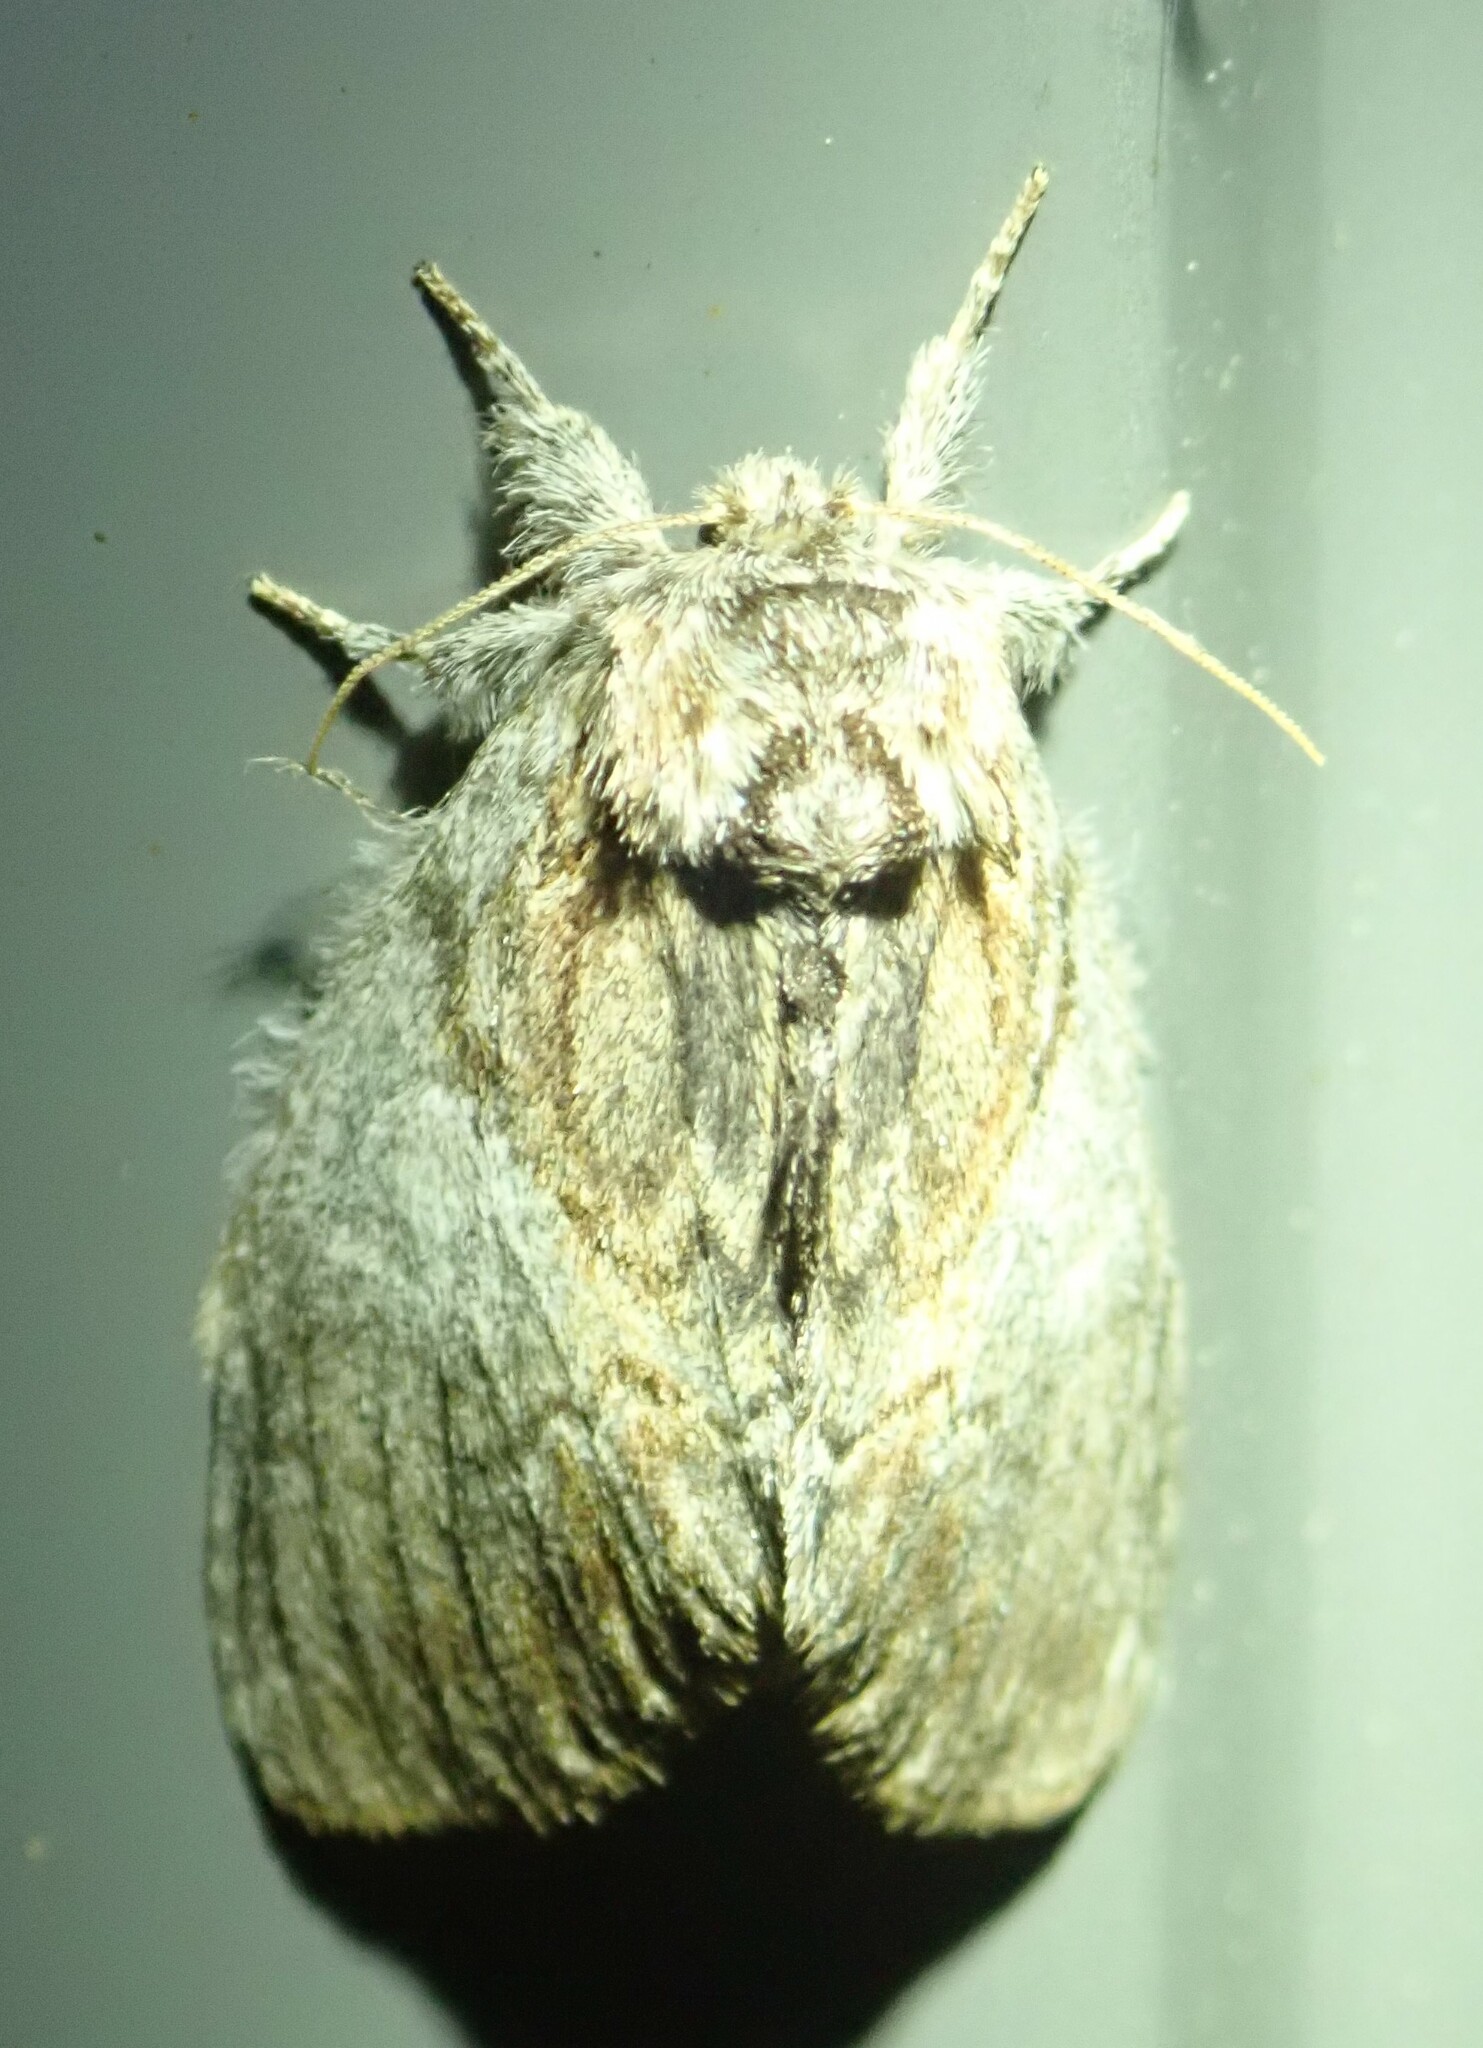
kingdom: Animalia
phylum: Arthropoda
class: Insecta
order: Lepidoptera
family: Notodontidae
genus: Peridea
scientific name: Peridea basitriens
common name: Oval-based prominent
